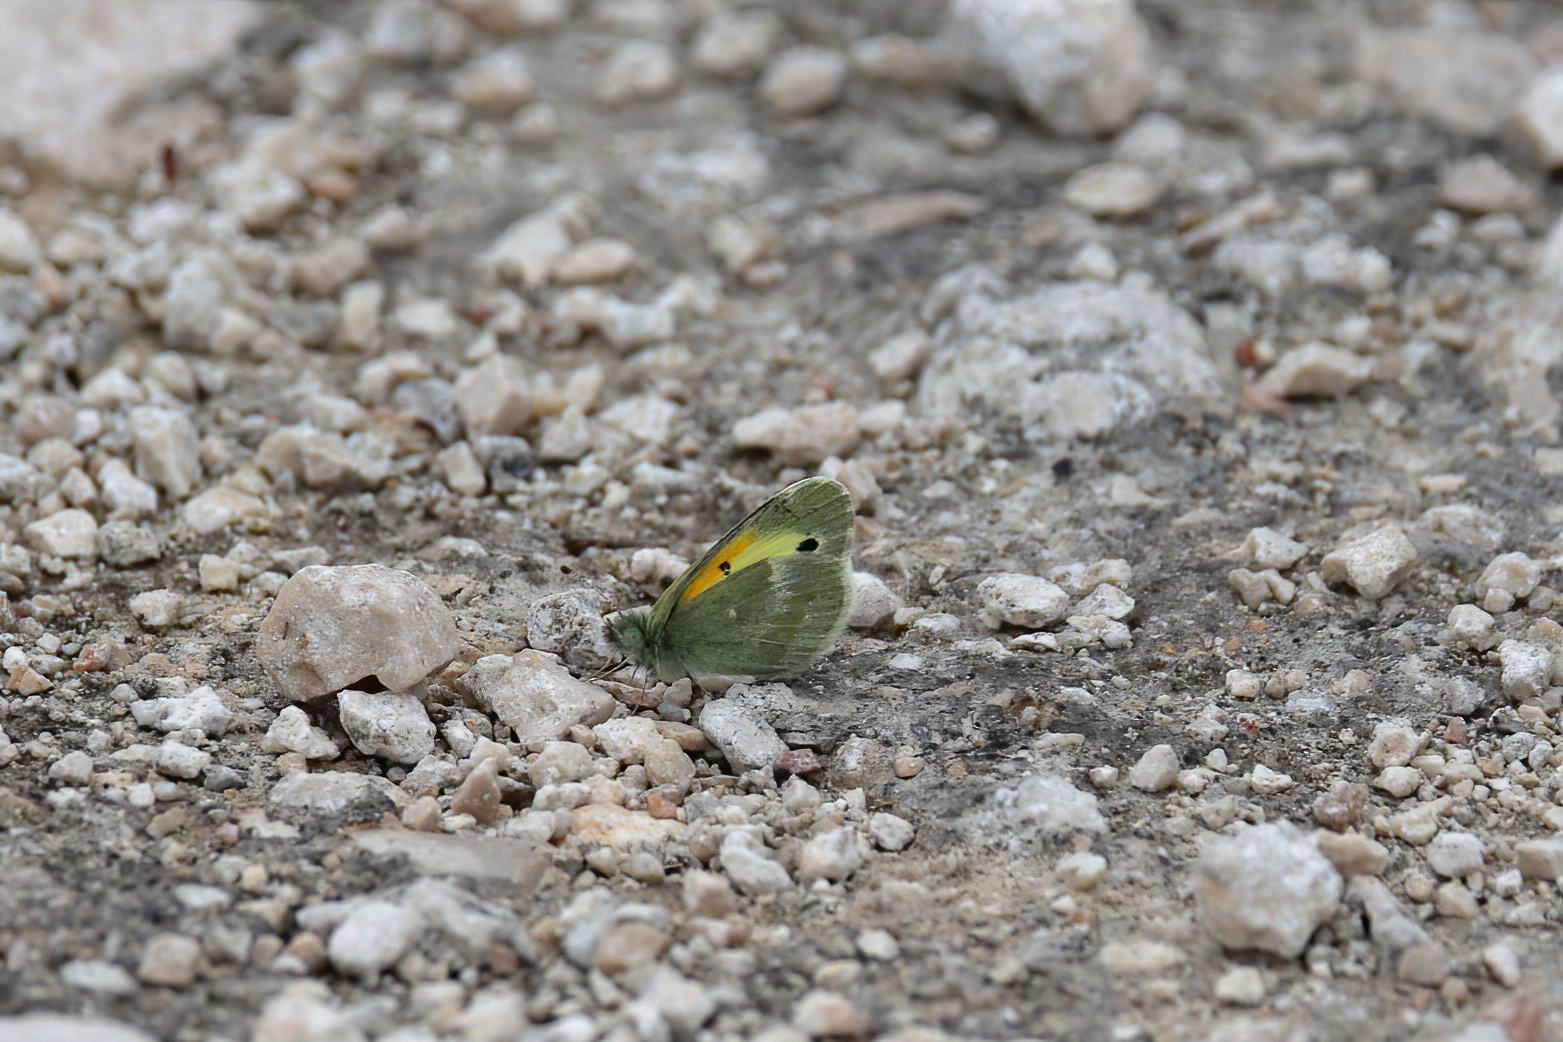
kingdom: Animalia
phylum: Arthropoda
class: Insecta
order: Lepidoptera
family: Pieridae
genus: Nathalis
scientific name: Nathalis iole
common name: Dainty sulphur
